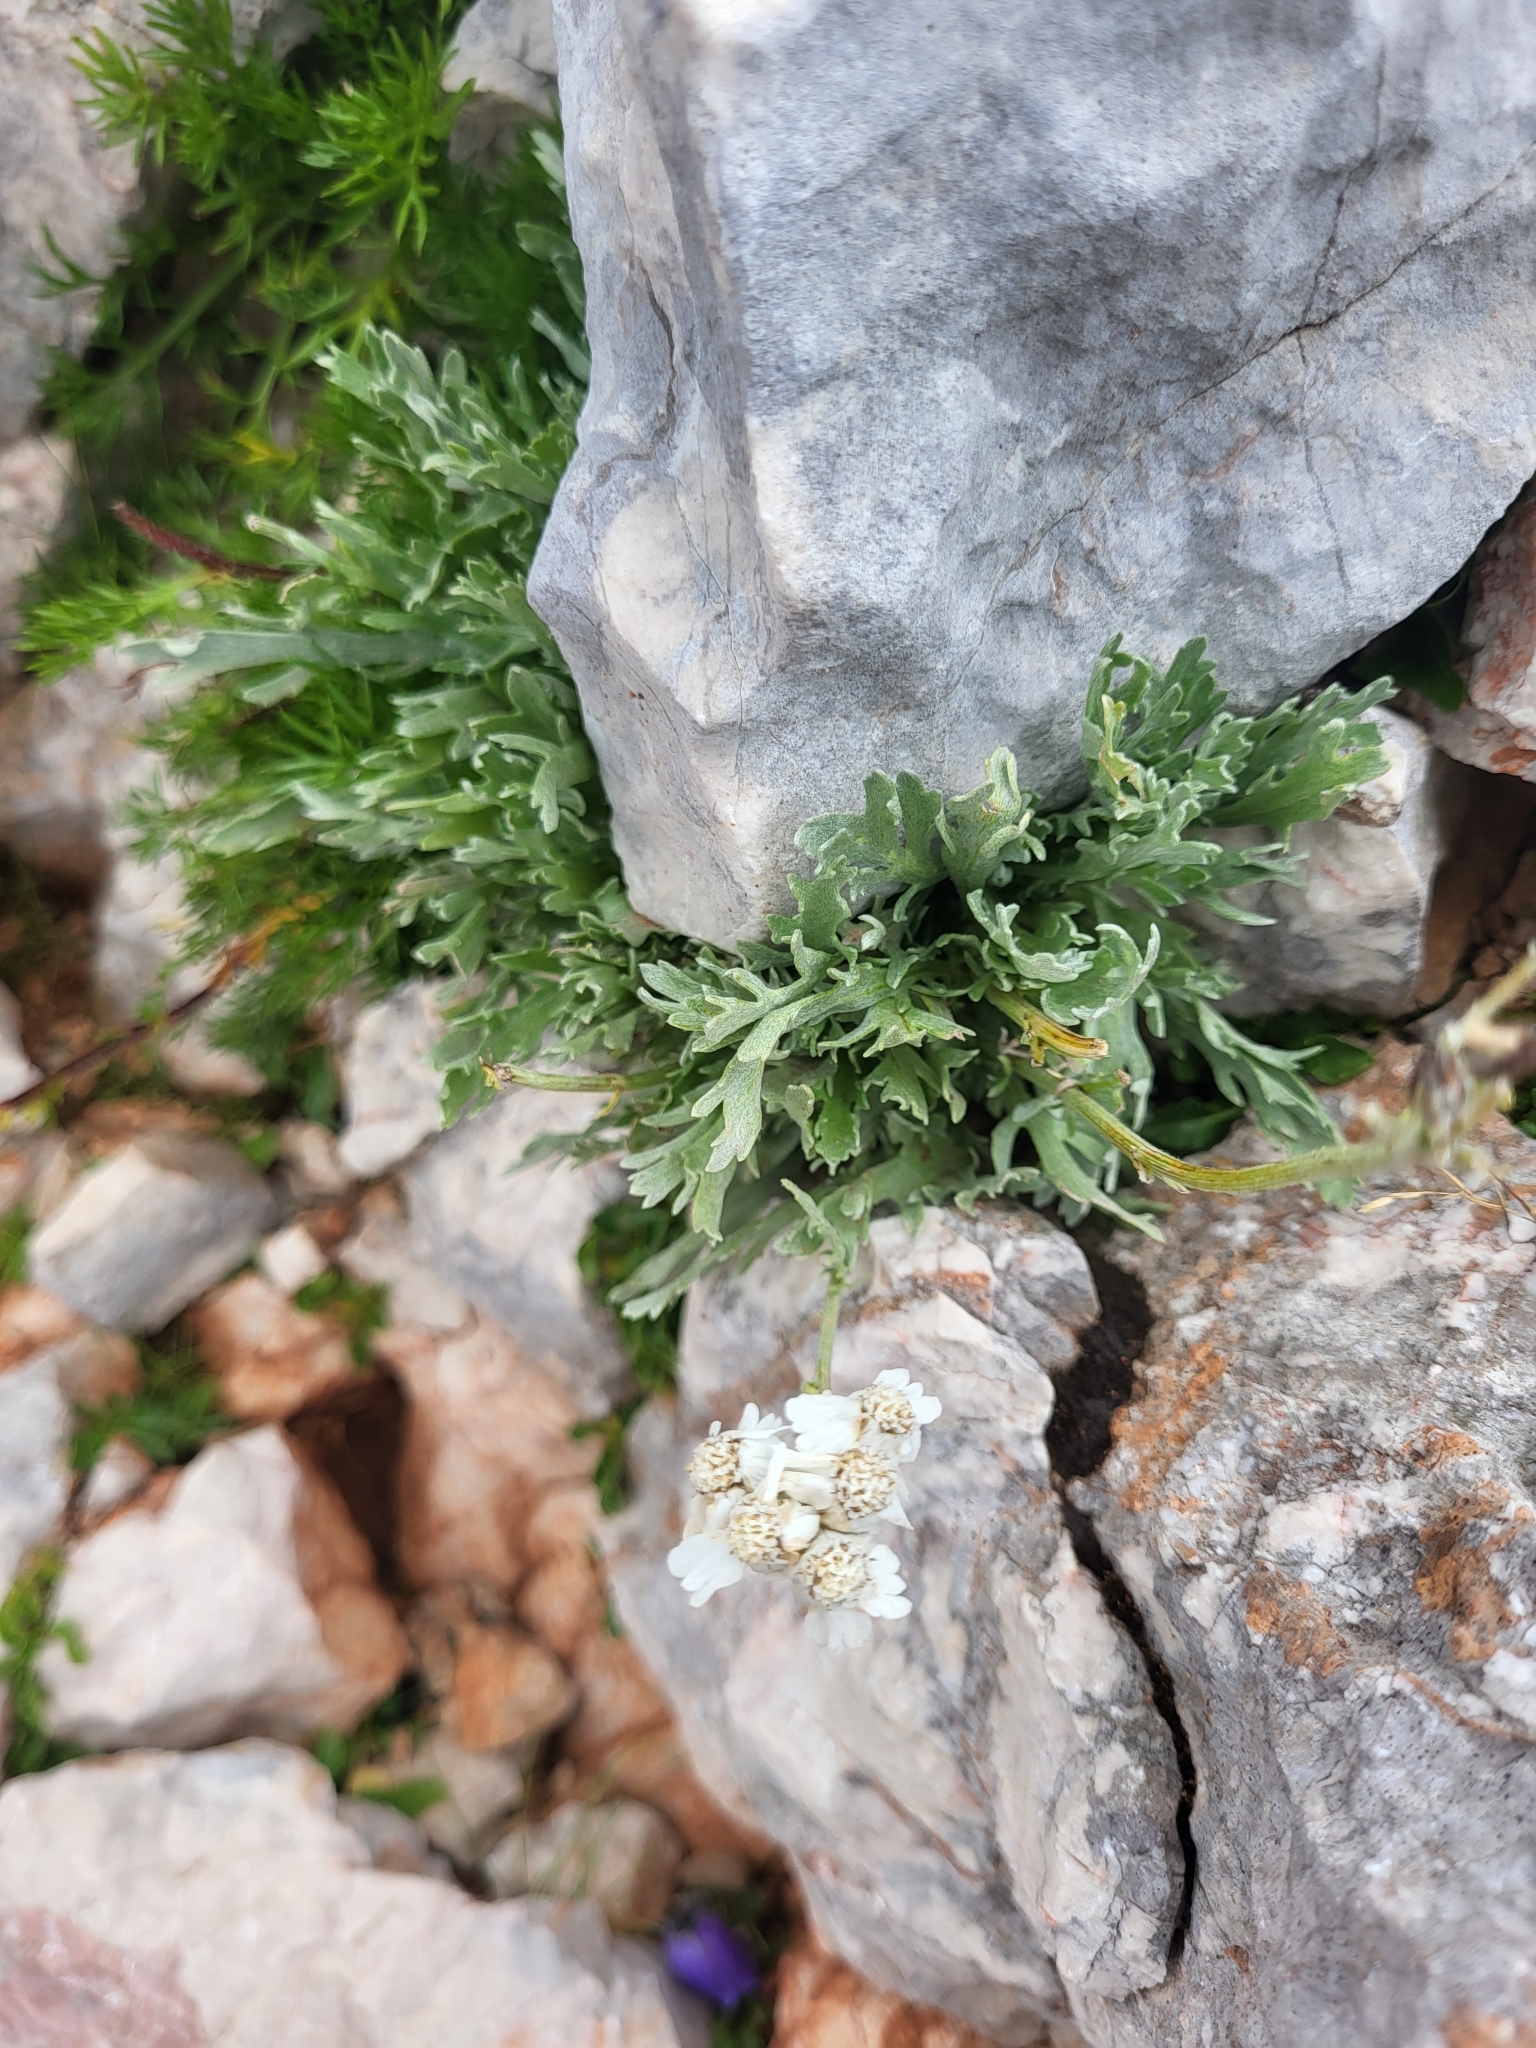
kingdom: Plantae
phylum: Tracheophyta
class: Magnoliopsida
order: Asterales
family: Asteraceae
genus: Achillea
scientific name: Achillea clavennae
